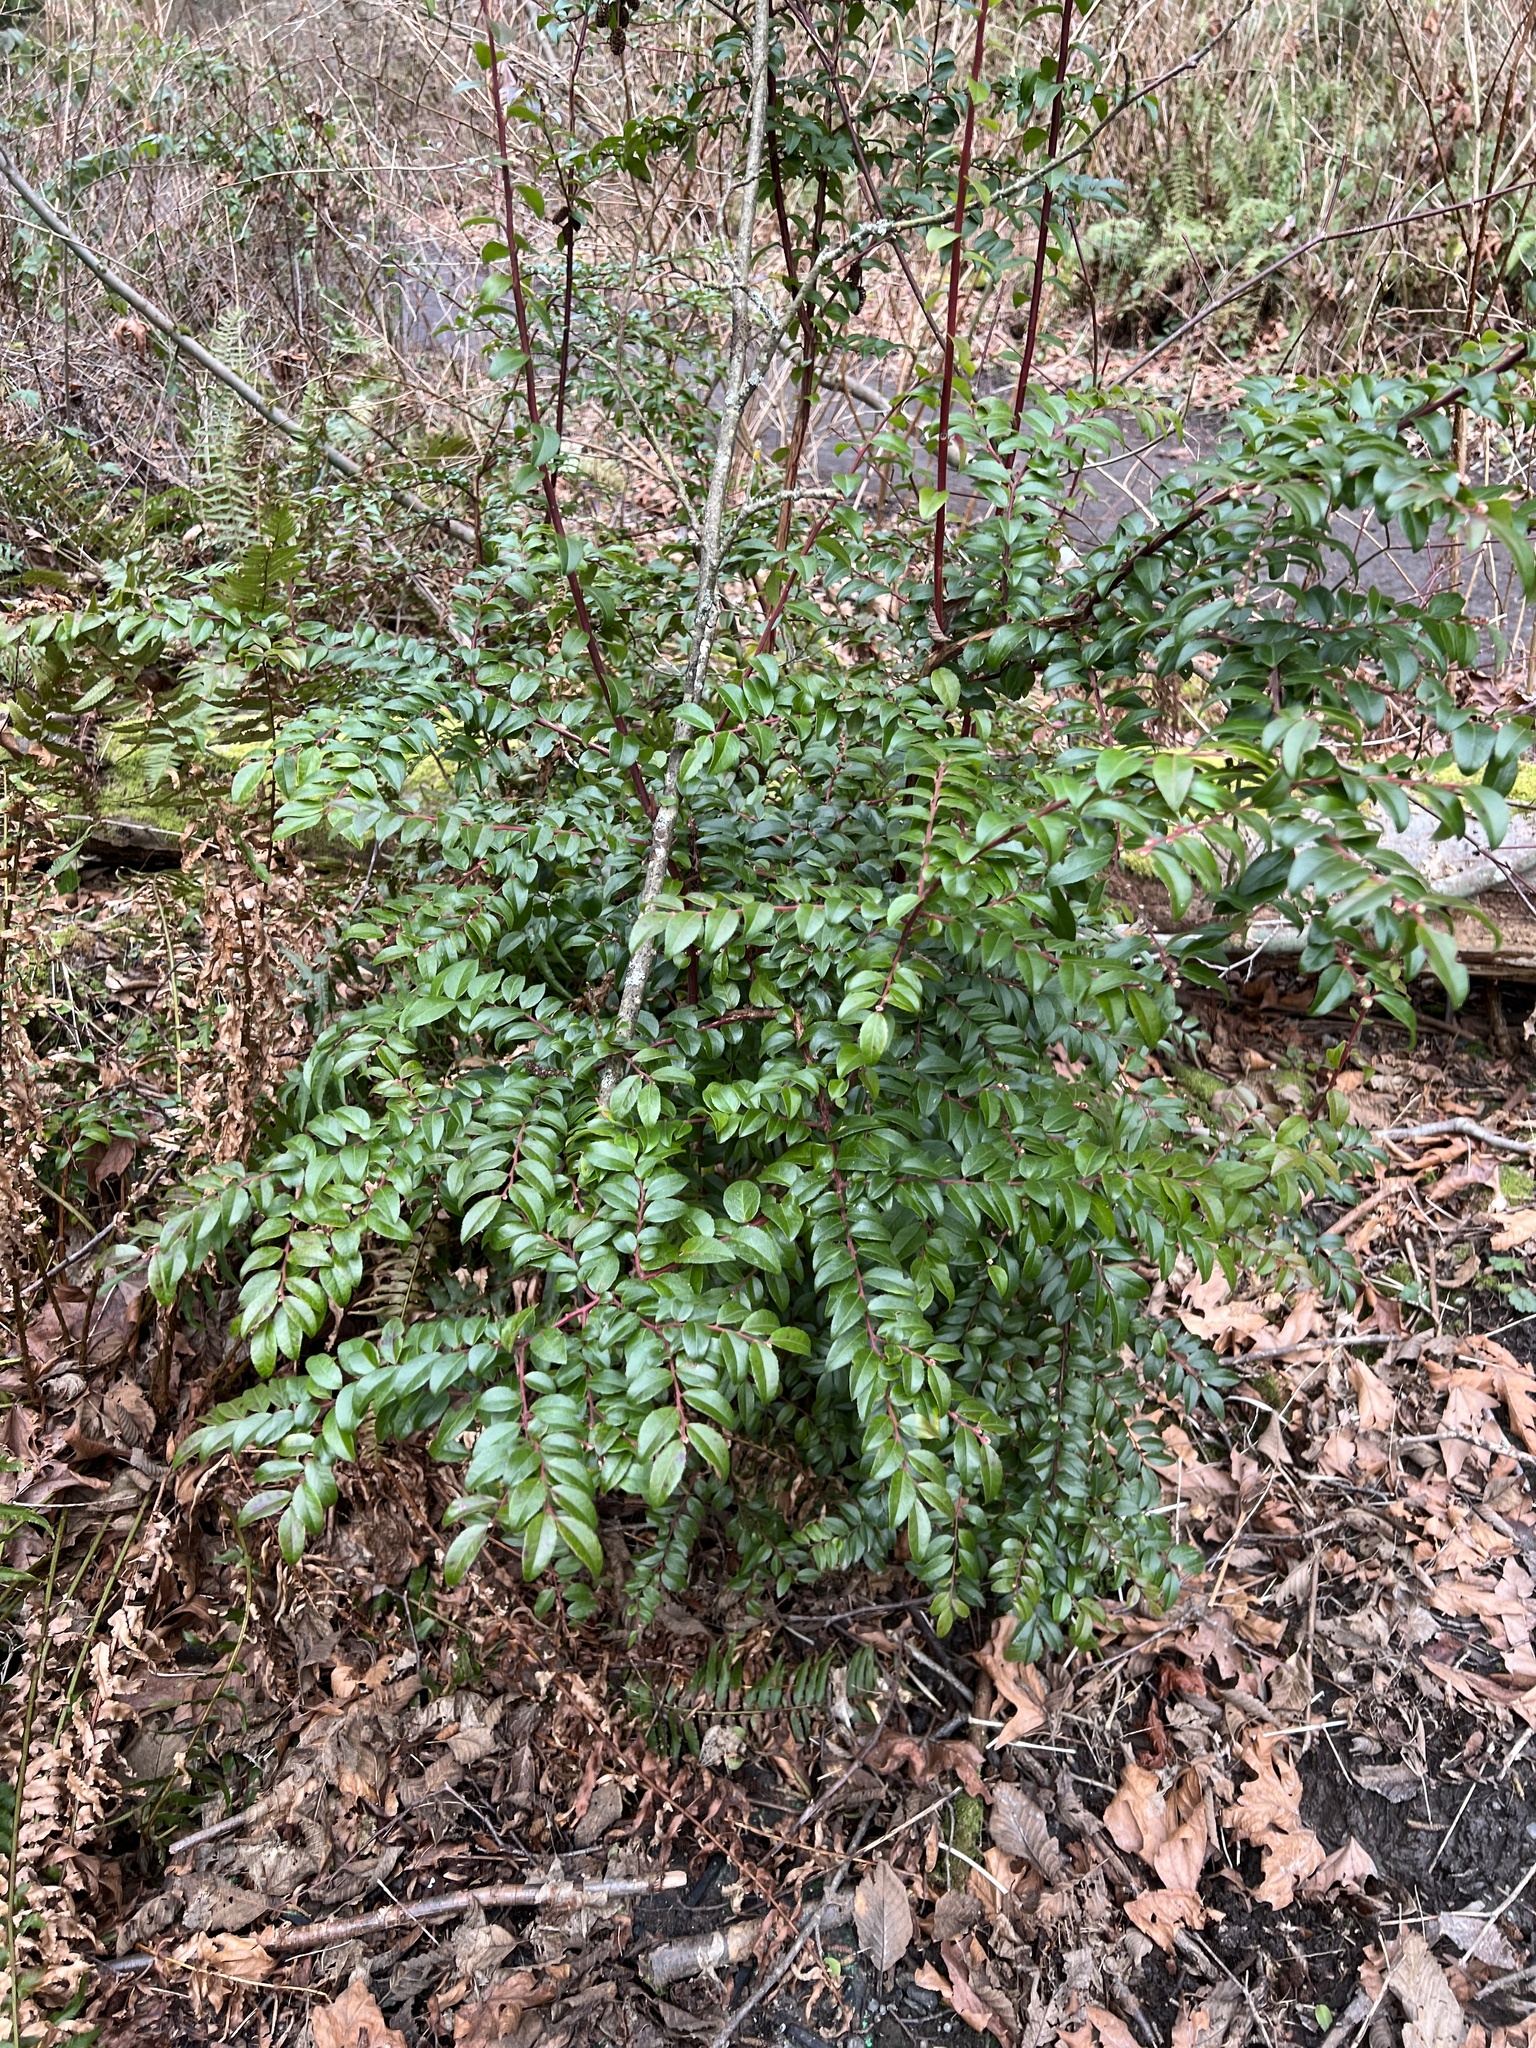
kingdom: Plantae
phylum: Tracheophyta
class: Magnoliopsida
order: Ericales
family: Ericaceae
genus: Vaccinium
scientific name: Vaccinium ovatum
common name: California-huckleberry
